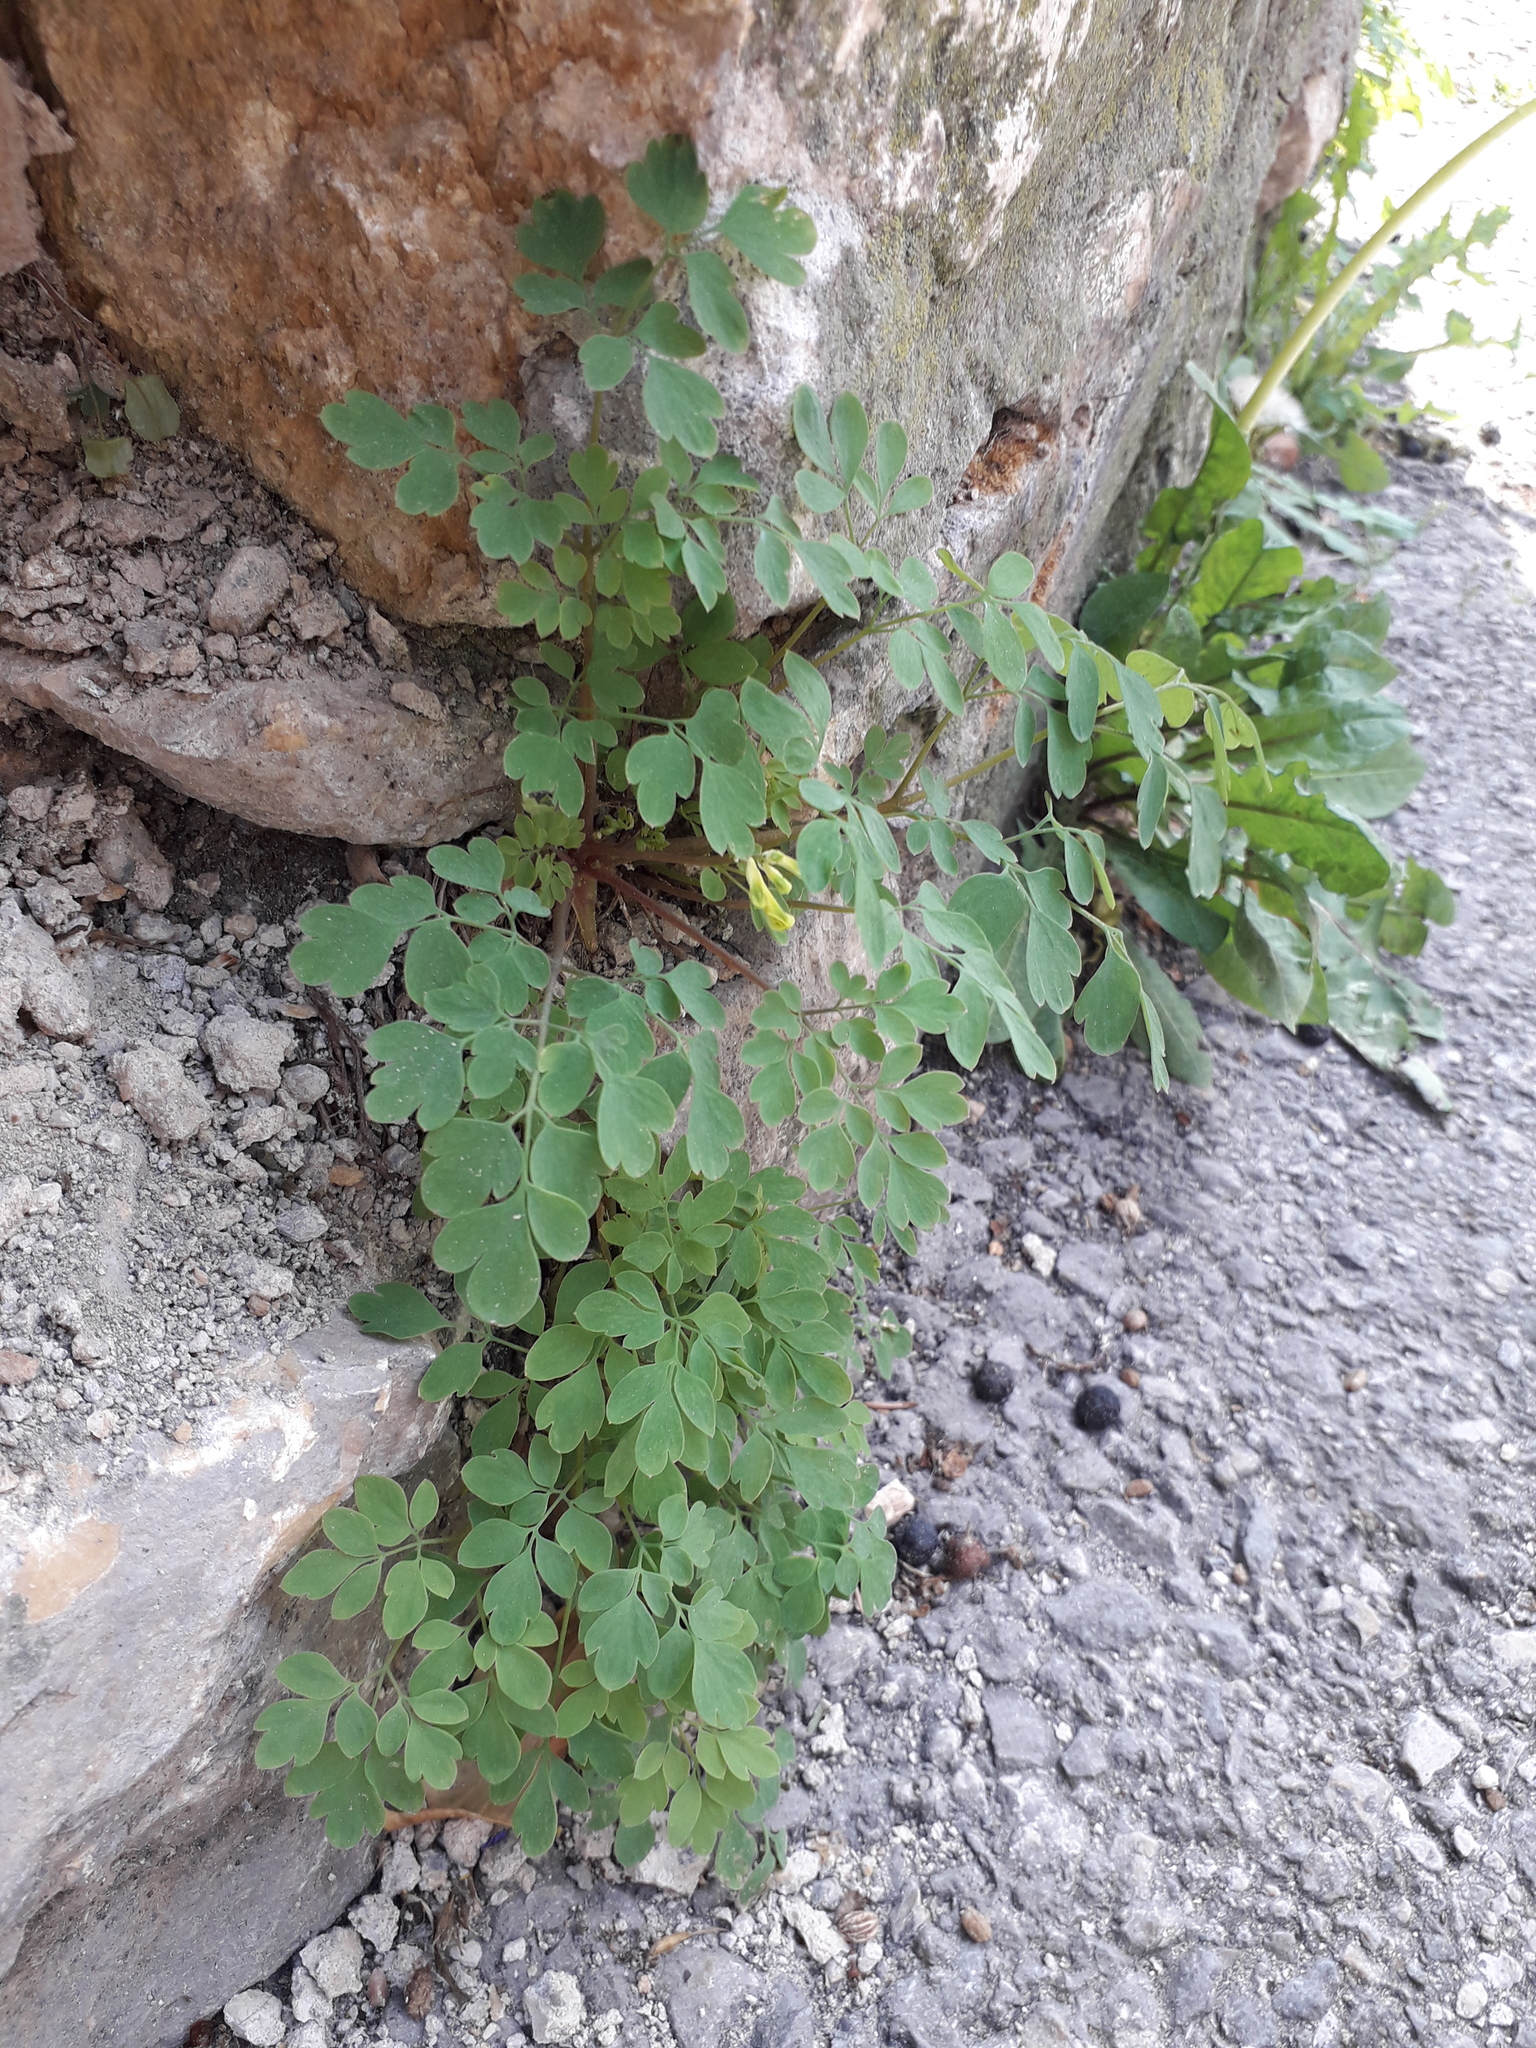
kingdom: Plantae
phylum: Tracheophyta
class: Magnoliopsida
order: Ranunculales
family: Papaveraceae
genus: Pseudofumaria
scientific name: Pseudofumaria lutea
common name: Yellow corydalis
